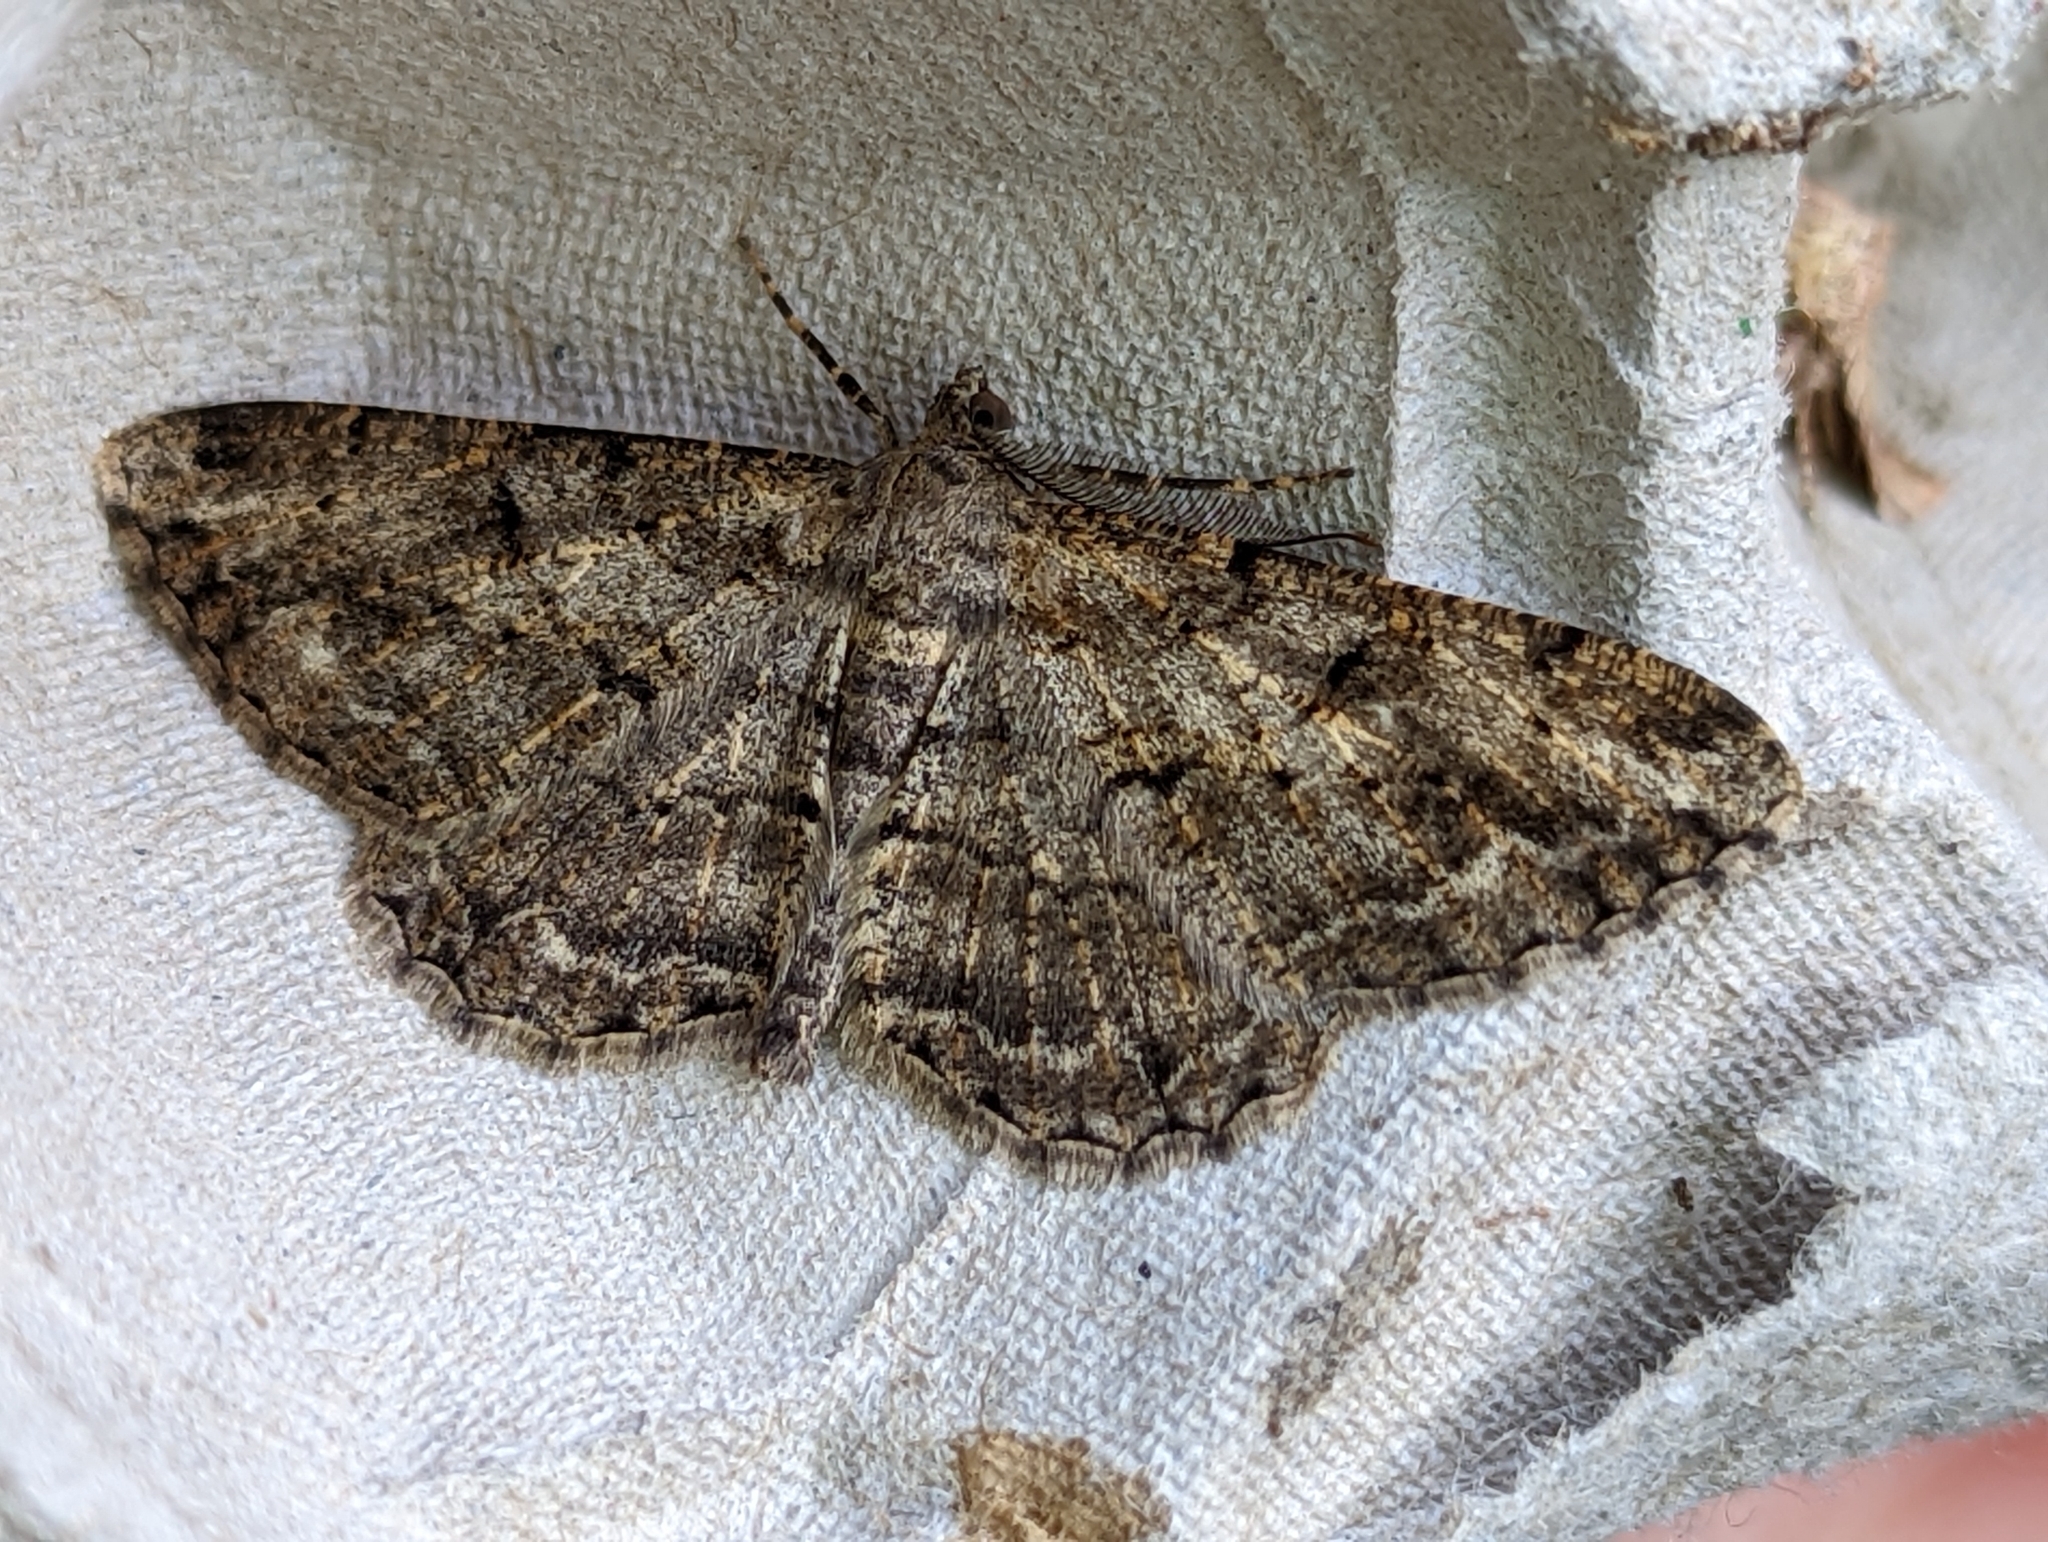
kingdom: Animalia
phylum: Arthropoda
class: Insecta
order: Lepidoptera
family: Geometridae
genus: Peribatodes
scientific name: Peribatodes rhomboidaria
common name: Willow beauty
